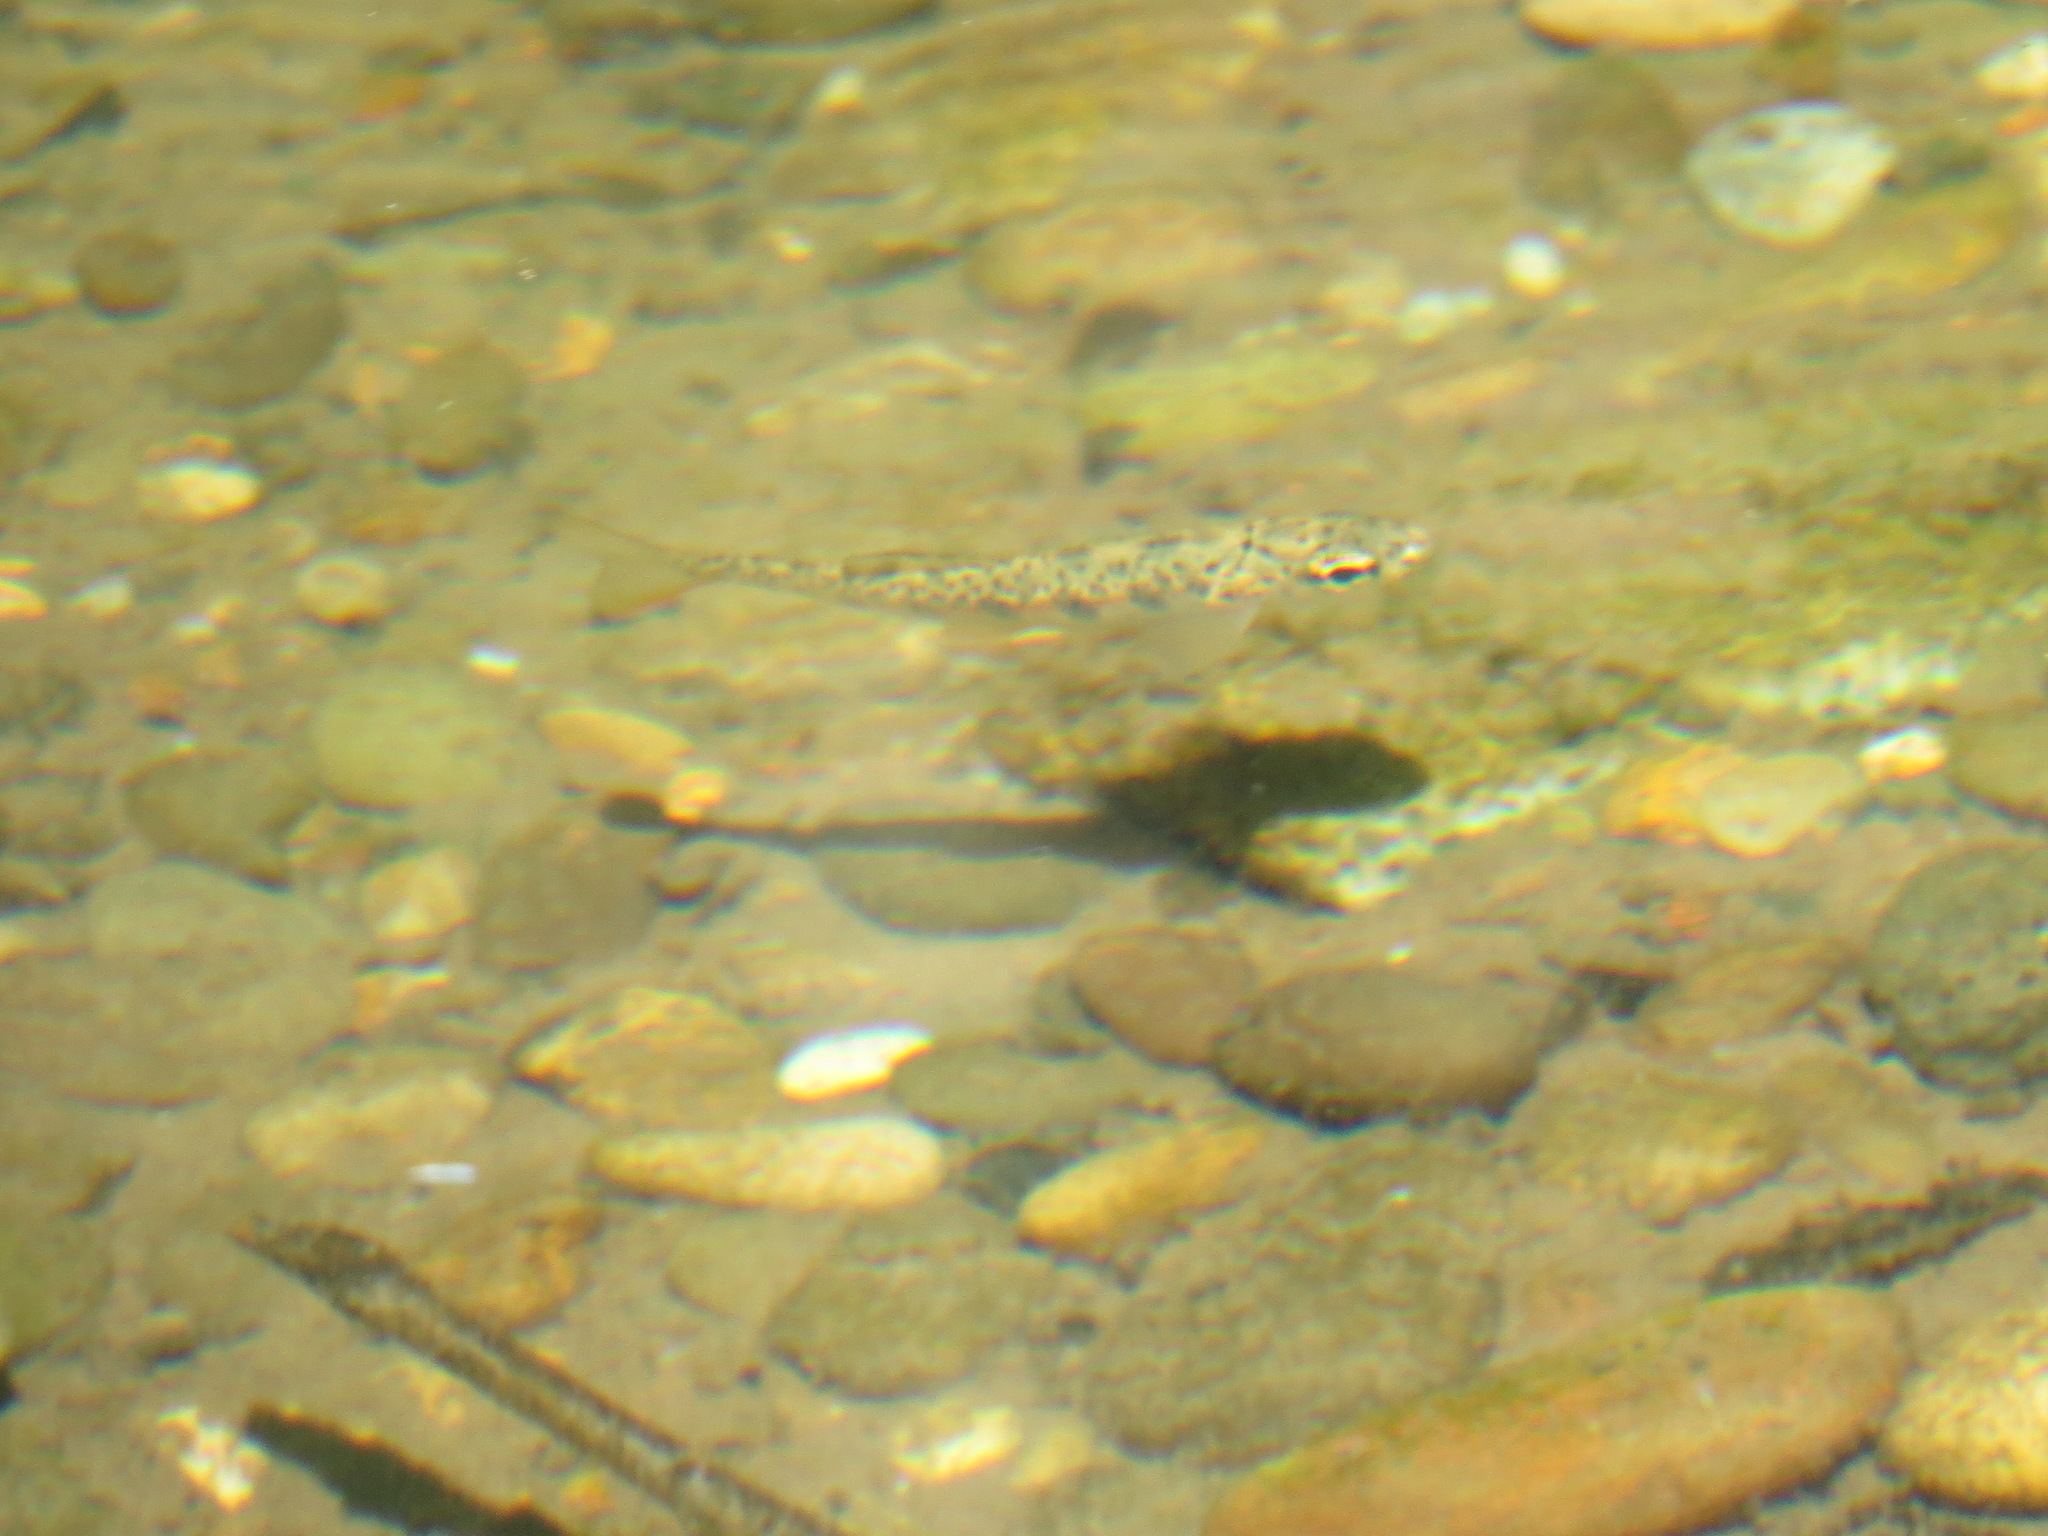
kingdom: Animalia
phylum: Chordata
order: Salmoniformes
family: Salmonidae
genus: Oncorhynchus
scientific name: Oncorhynchus mykiss
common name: Rainbow trout
